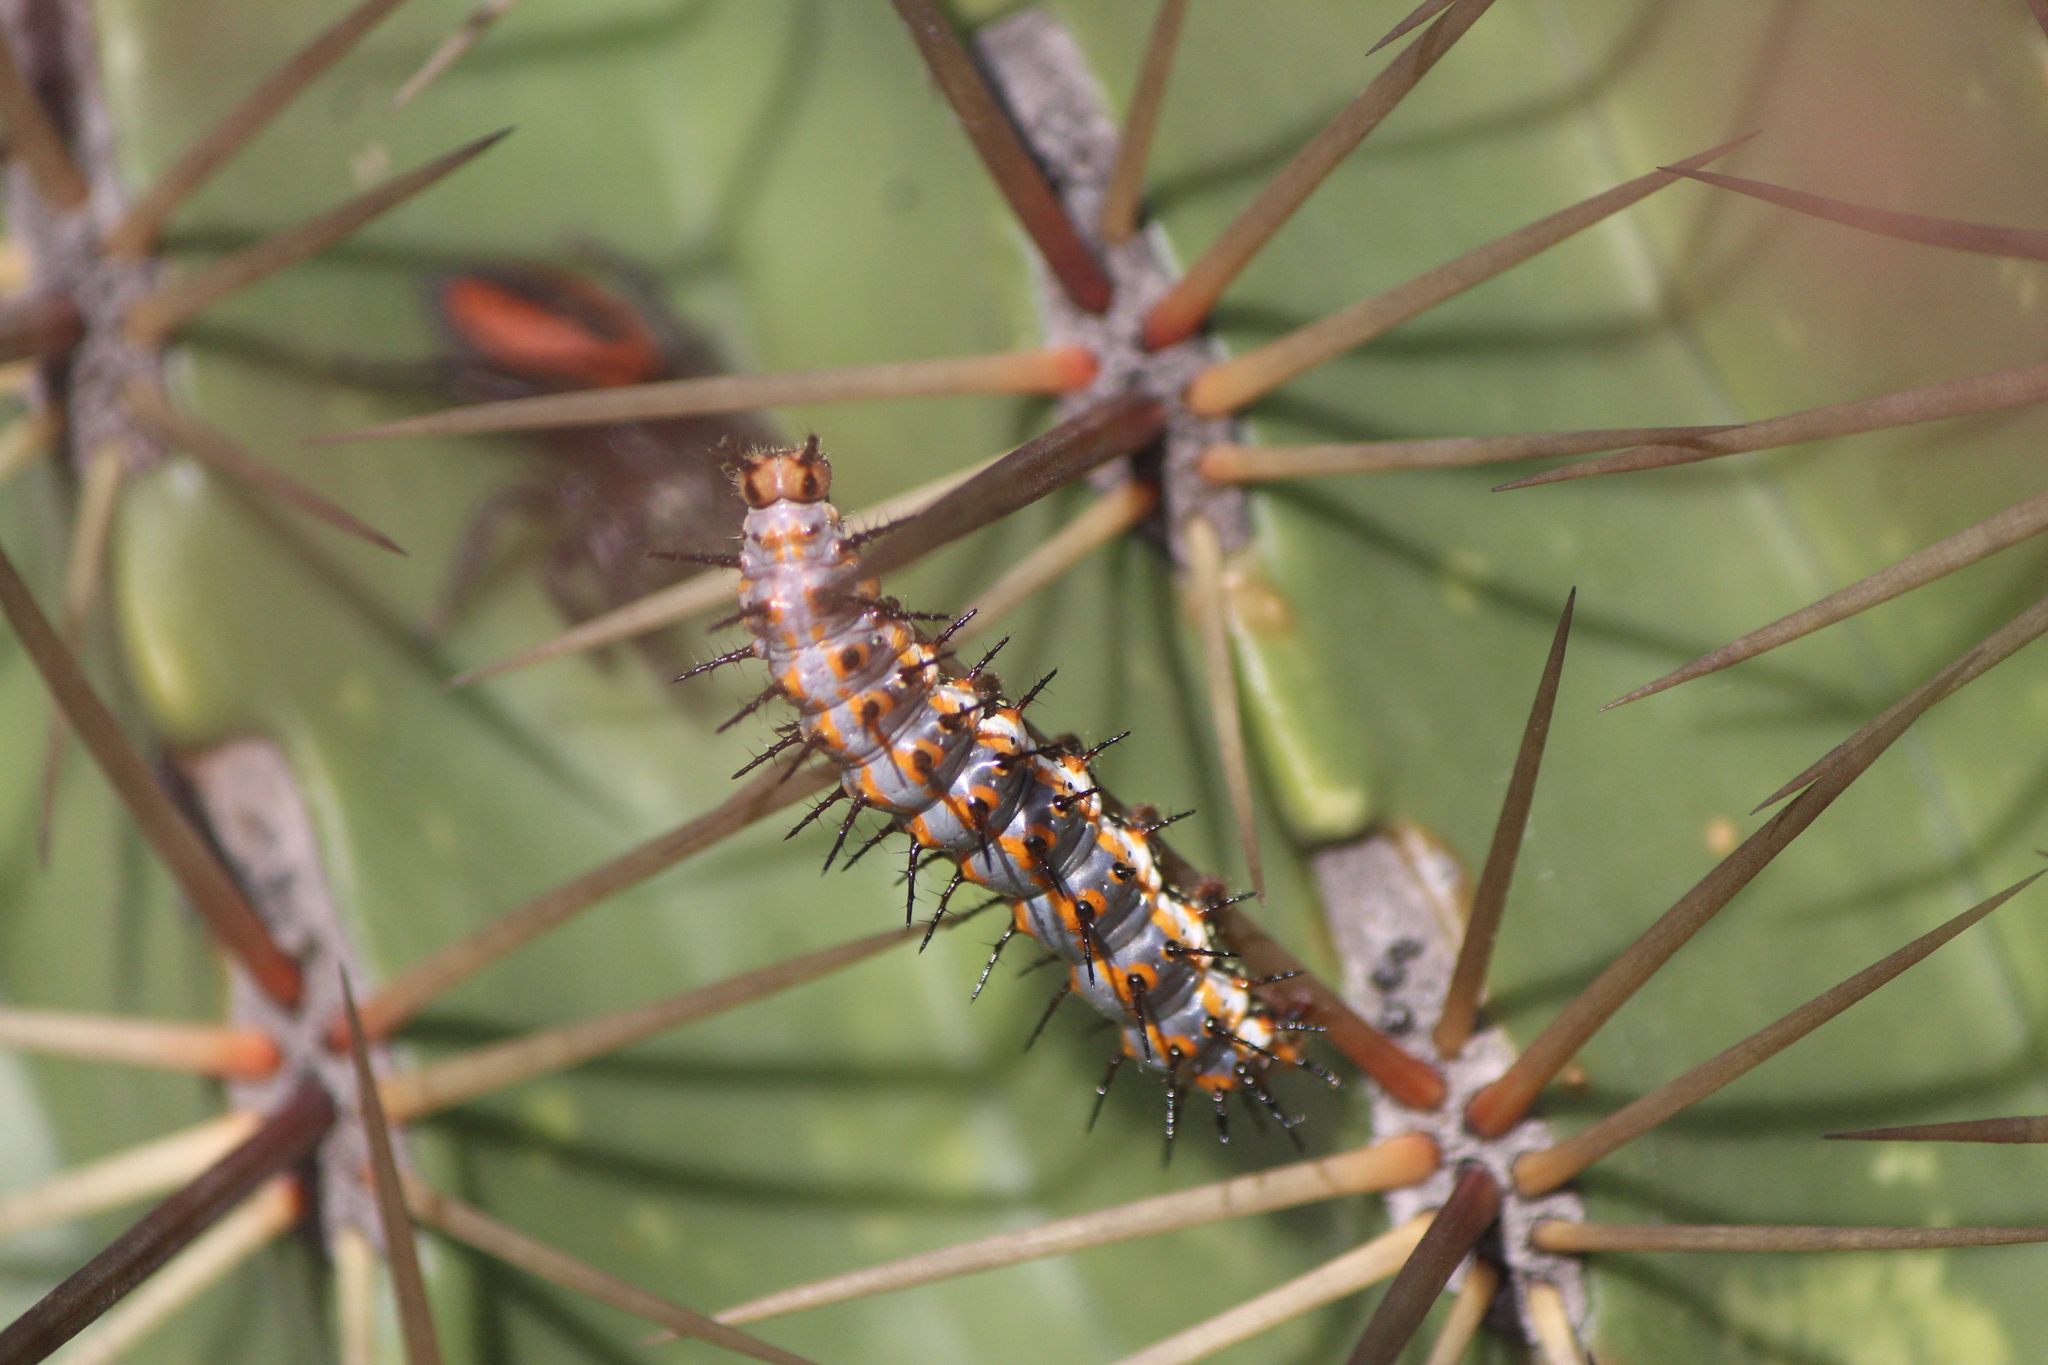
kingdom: Animalia
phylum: Arthropoda
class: Insecta
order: Lepidoptera
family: Nymphalidae
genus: Dione
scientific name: Dione vanillae
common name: Gulf fritillary
